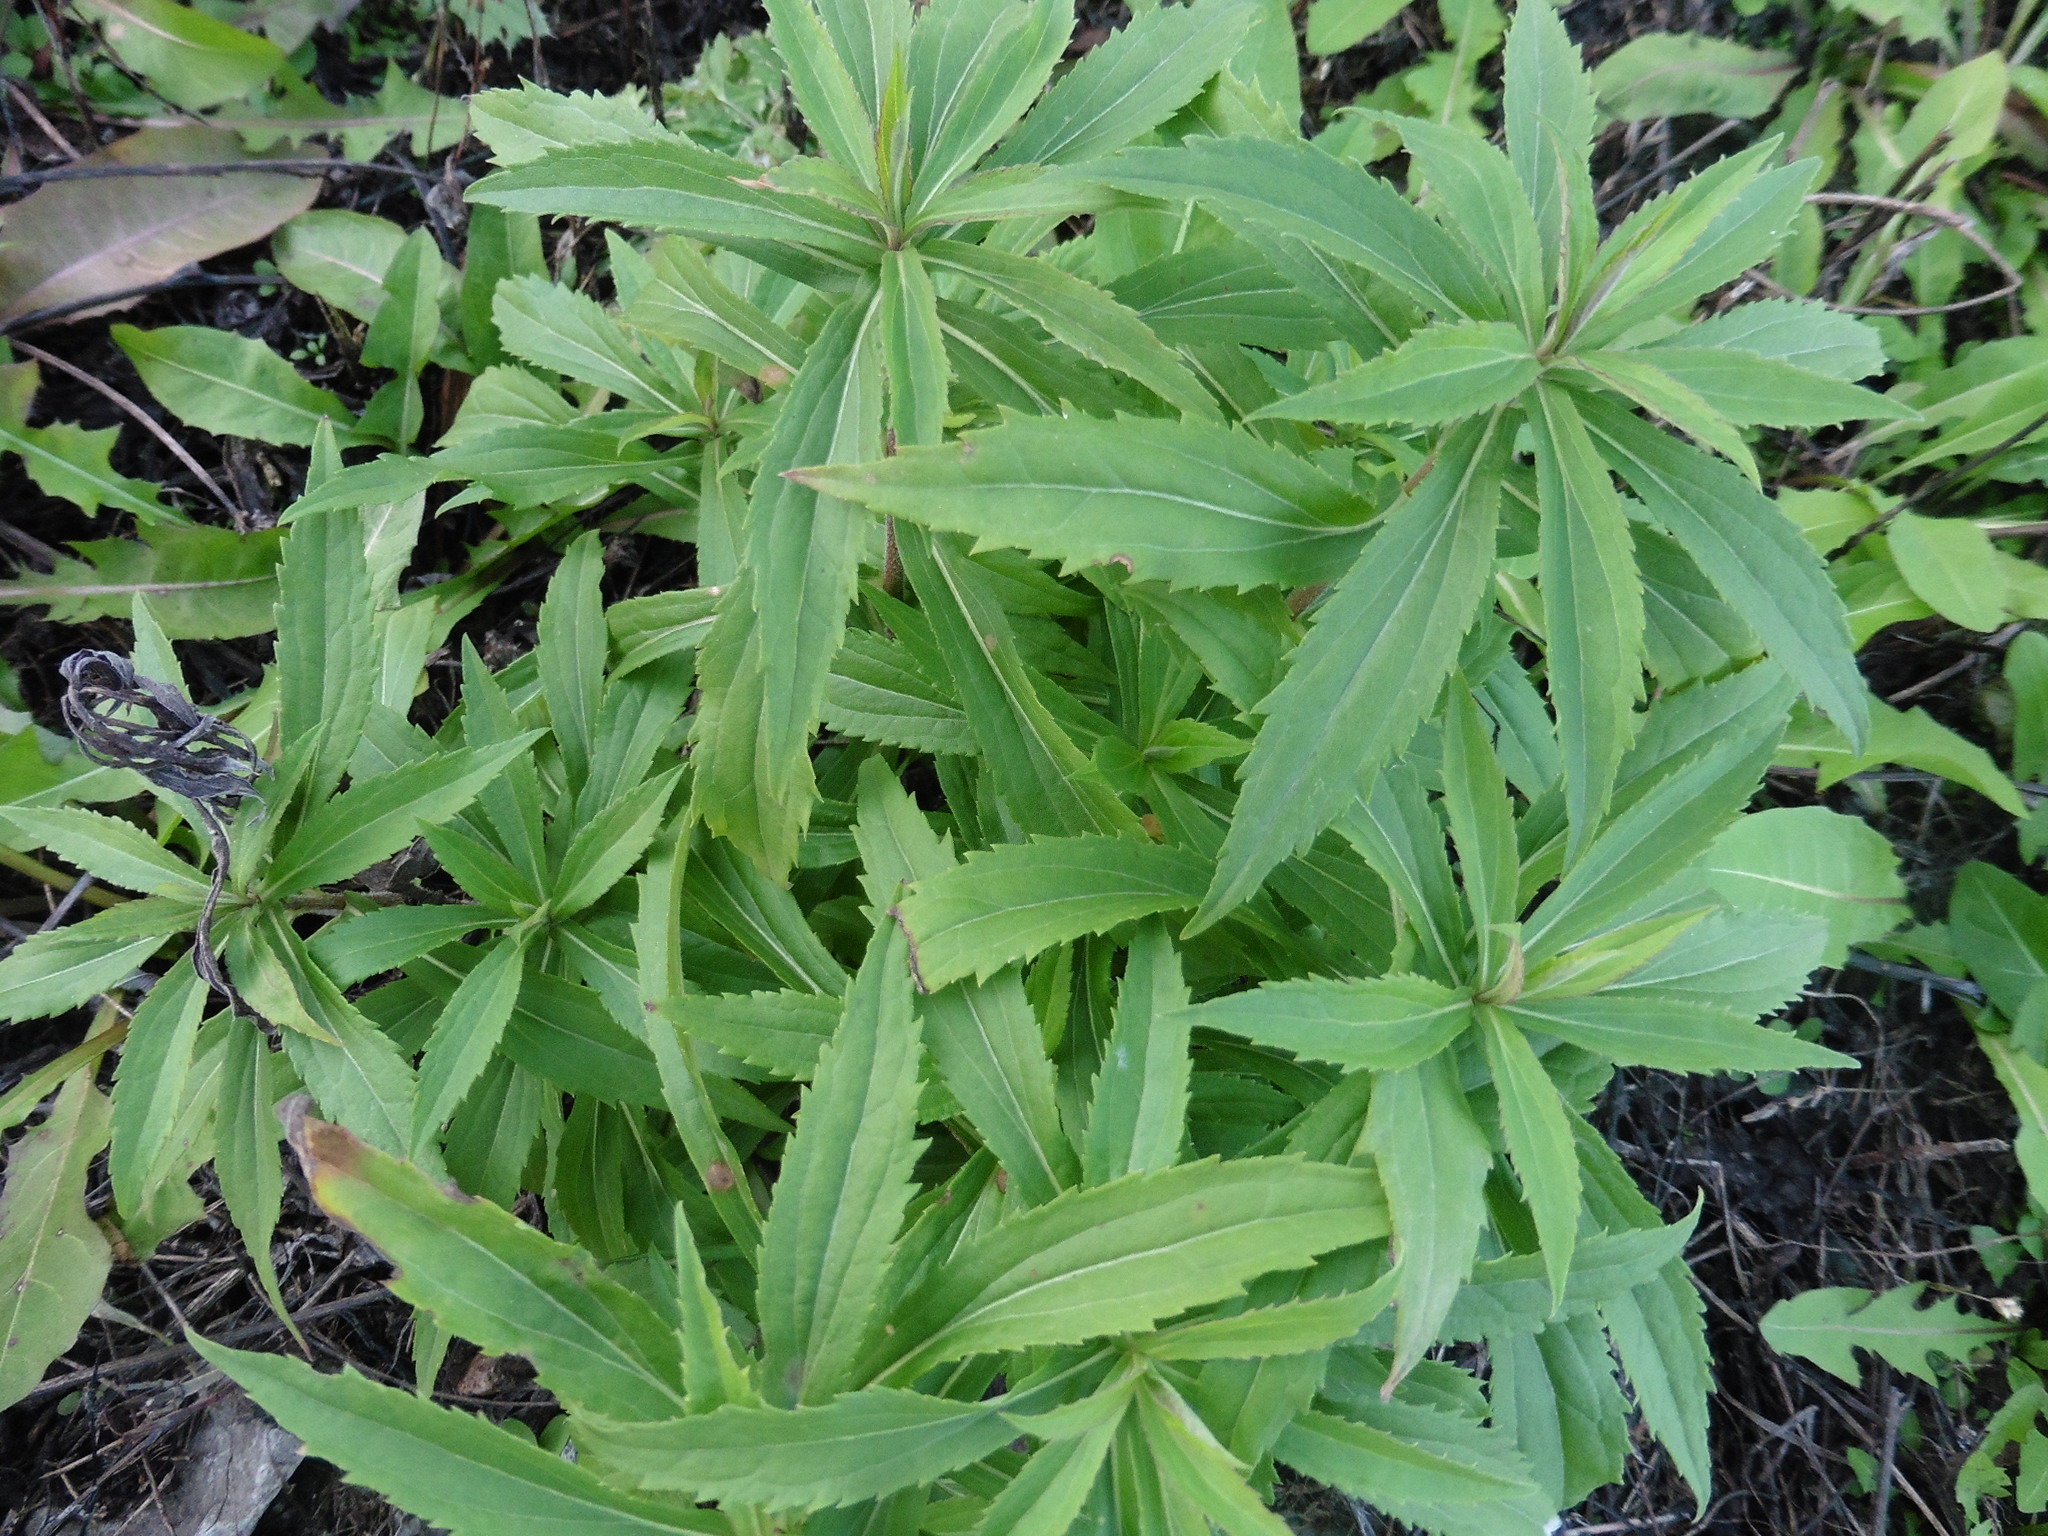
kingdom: Plantae
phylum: Tracheophyta
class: Magnoliopsida
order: Asterales
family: Asteraceae
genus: Solidago
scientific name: Solidago canadensis
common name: Canada goldenrod
